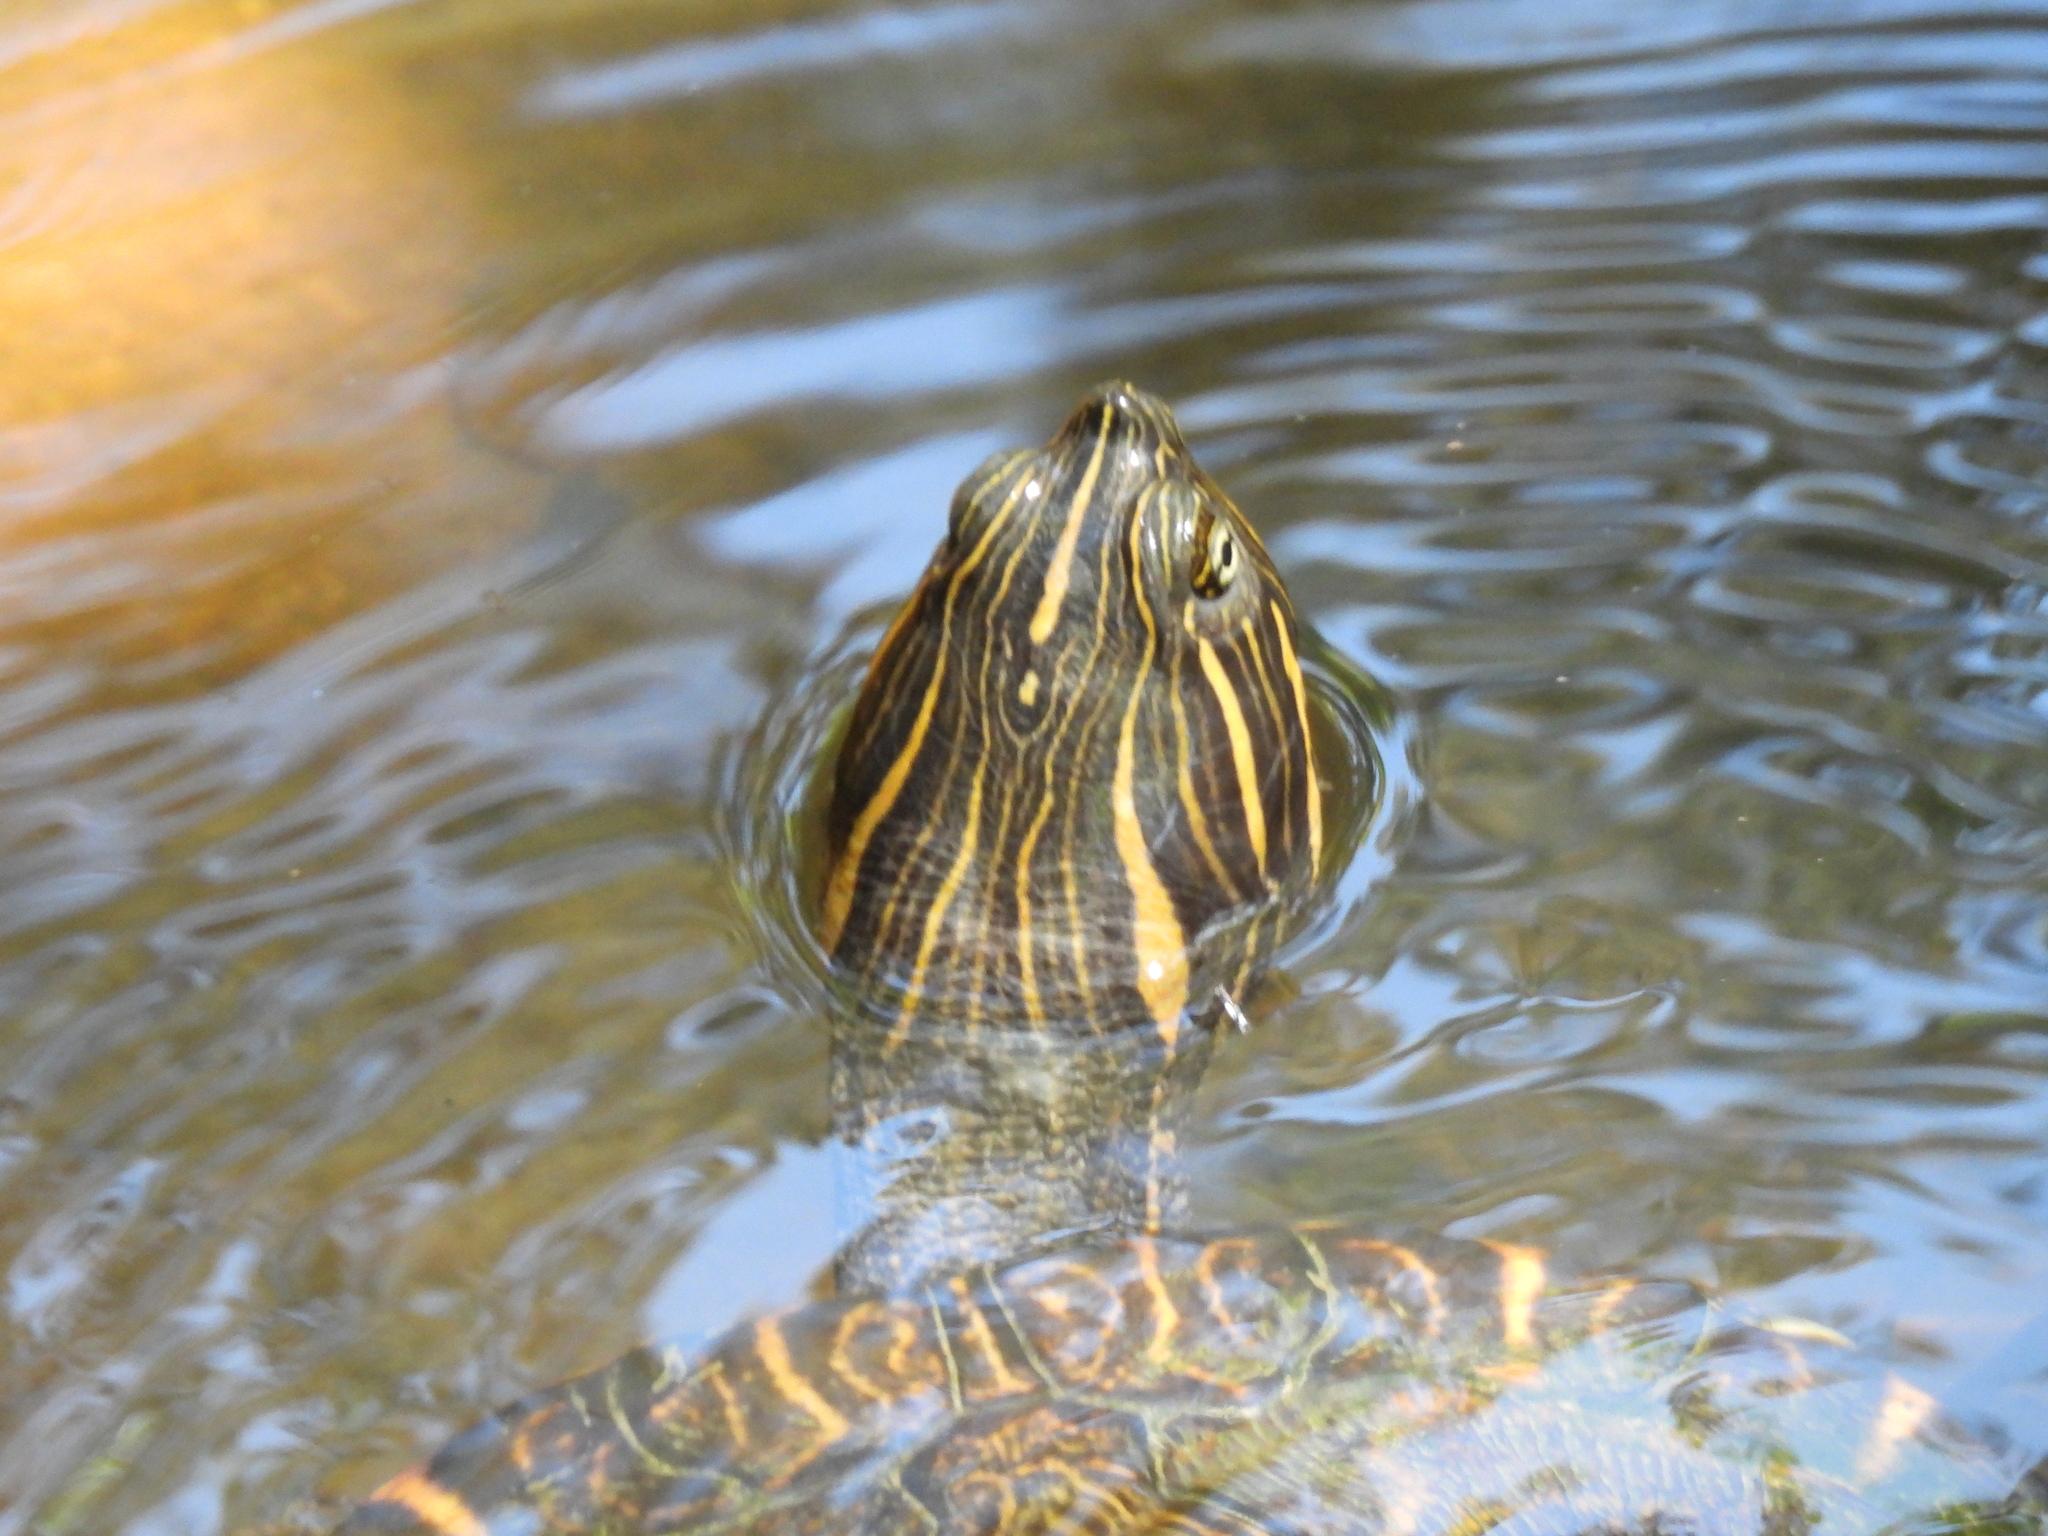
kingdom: Animalia
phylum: Chordata
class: Testudines
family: Emydidae
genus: Pseudemys
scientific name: Pseudemys concinna
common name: Eastern river cooter
